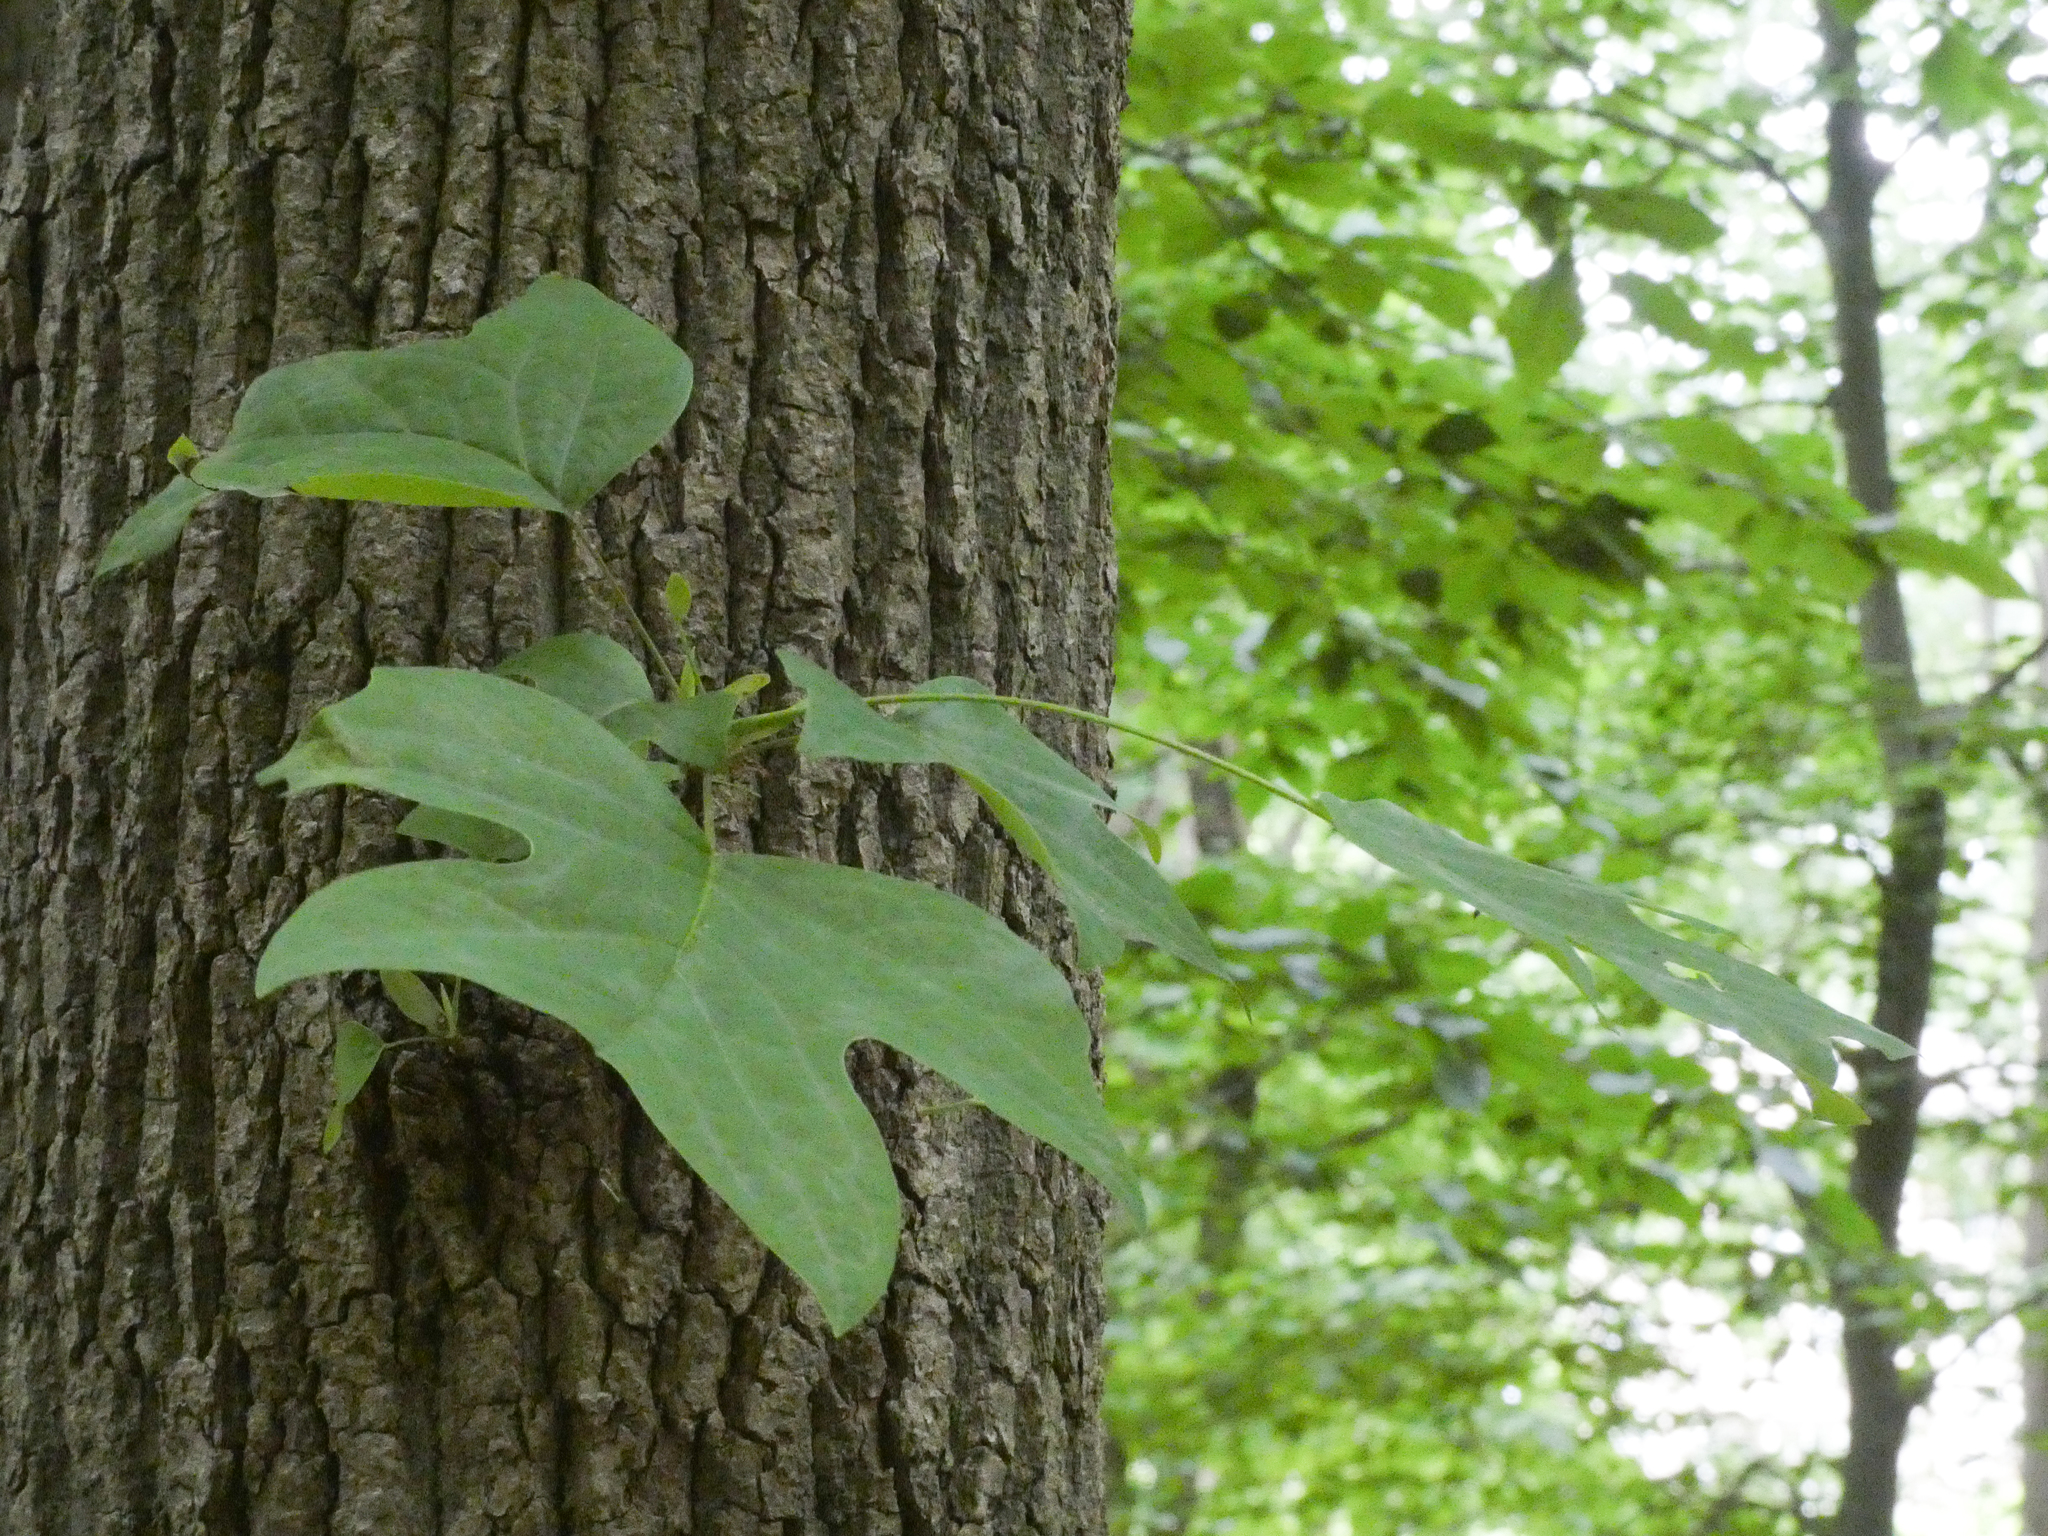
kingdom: Plantae
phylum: Tracheophyta
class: Magnoliopsida
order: Magnoliales
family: Magnoliaceae
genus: Liriodendron
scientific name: Liriodendron tulipifera
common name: Tulip tree
